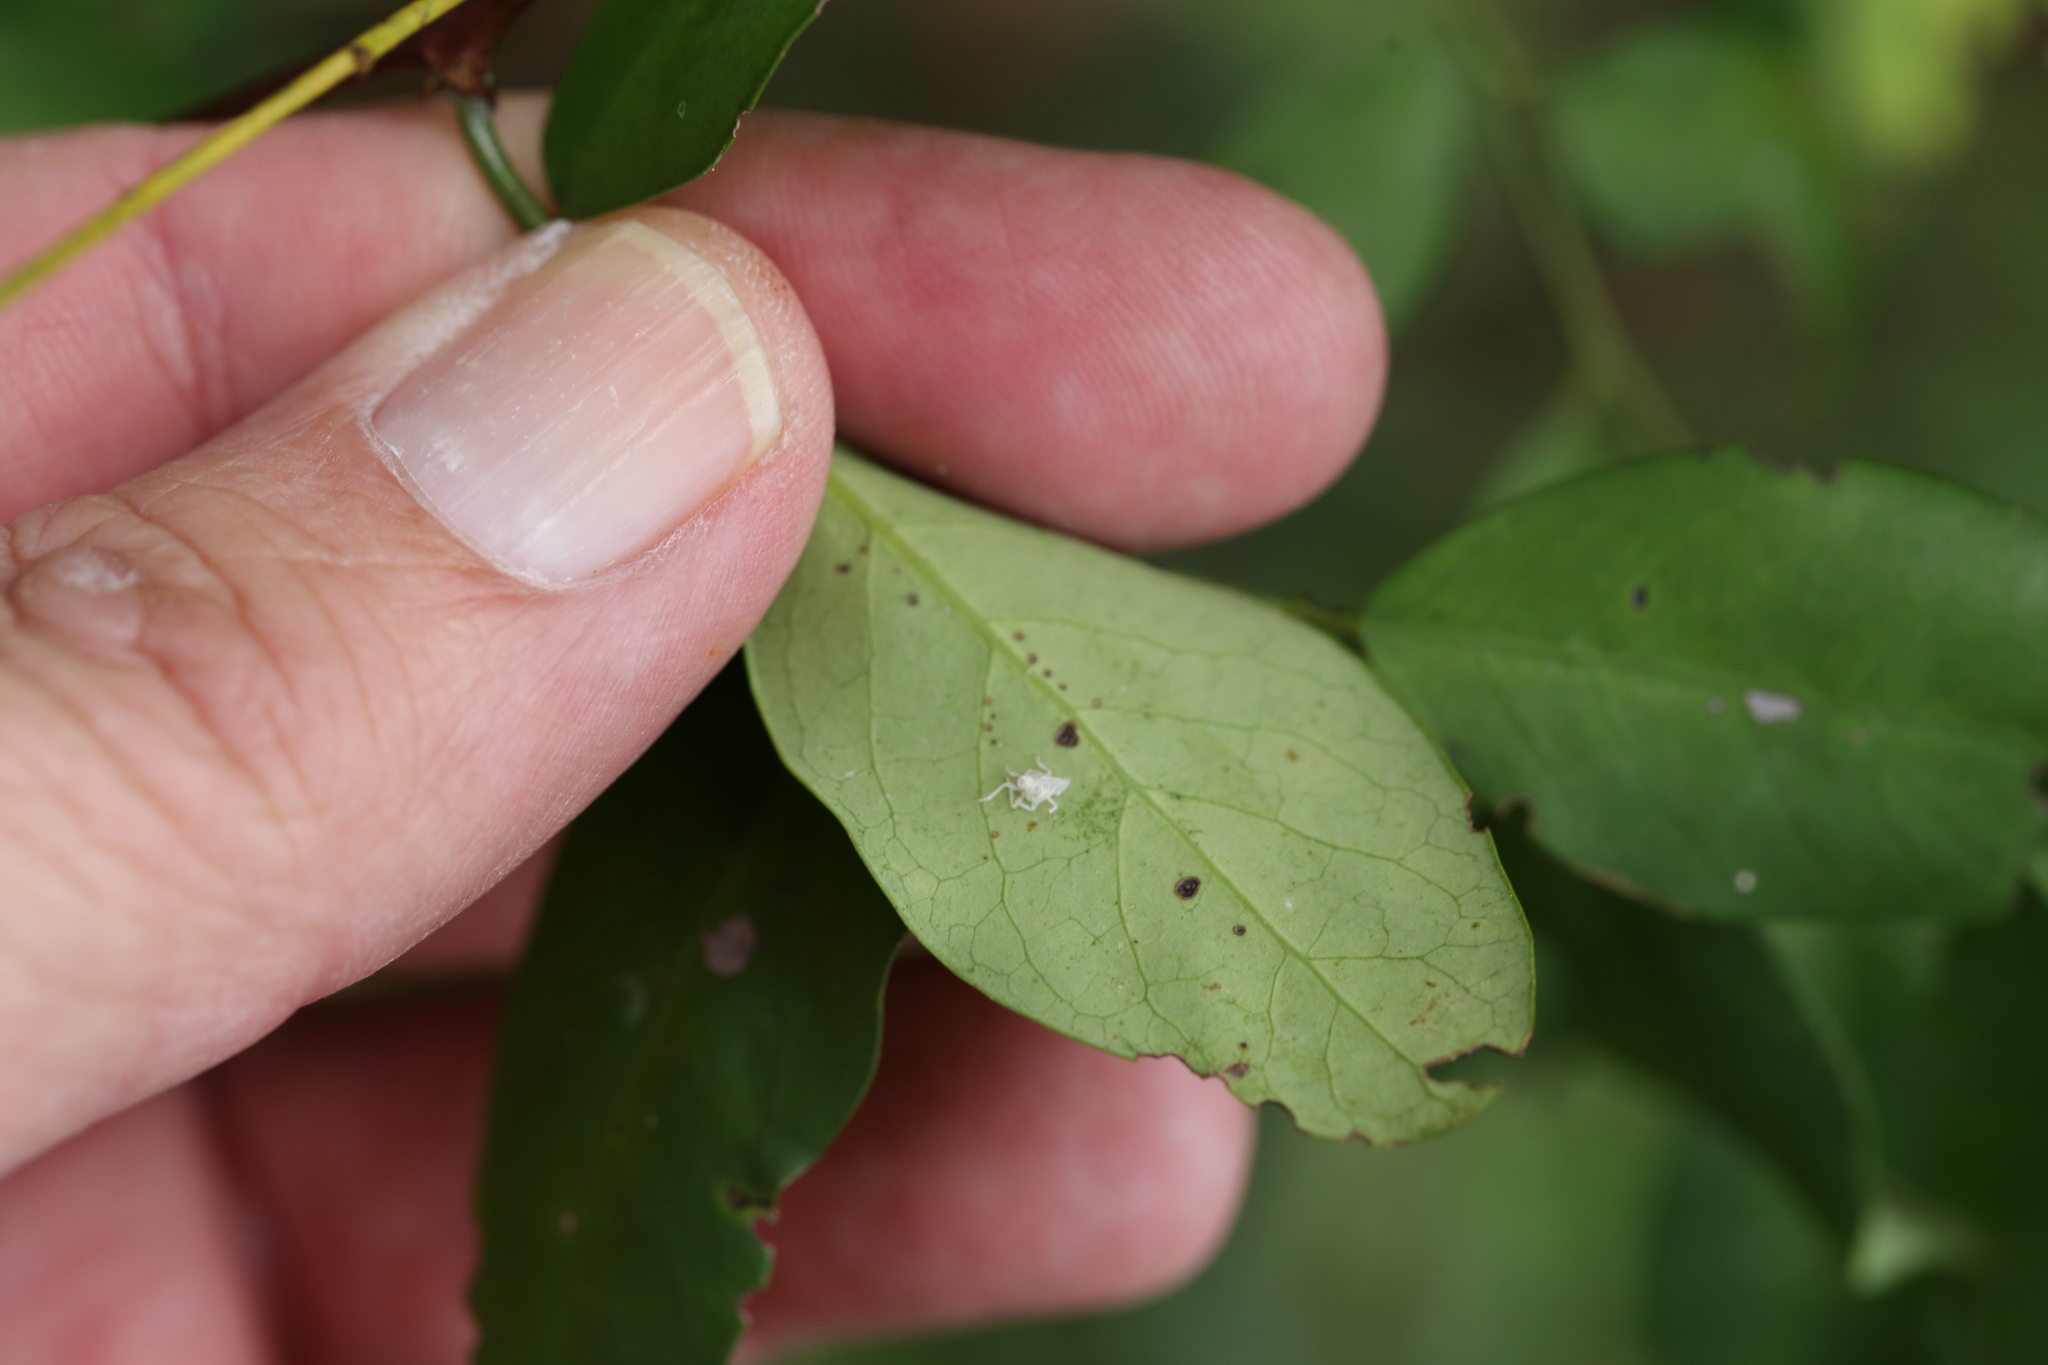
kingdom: Plantae
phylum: Tracheophyta
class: Magnoliopsida
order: Malpighiales
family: Phyllanthaceae
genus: Breynia
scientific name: Breynia oblongifolia
